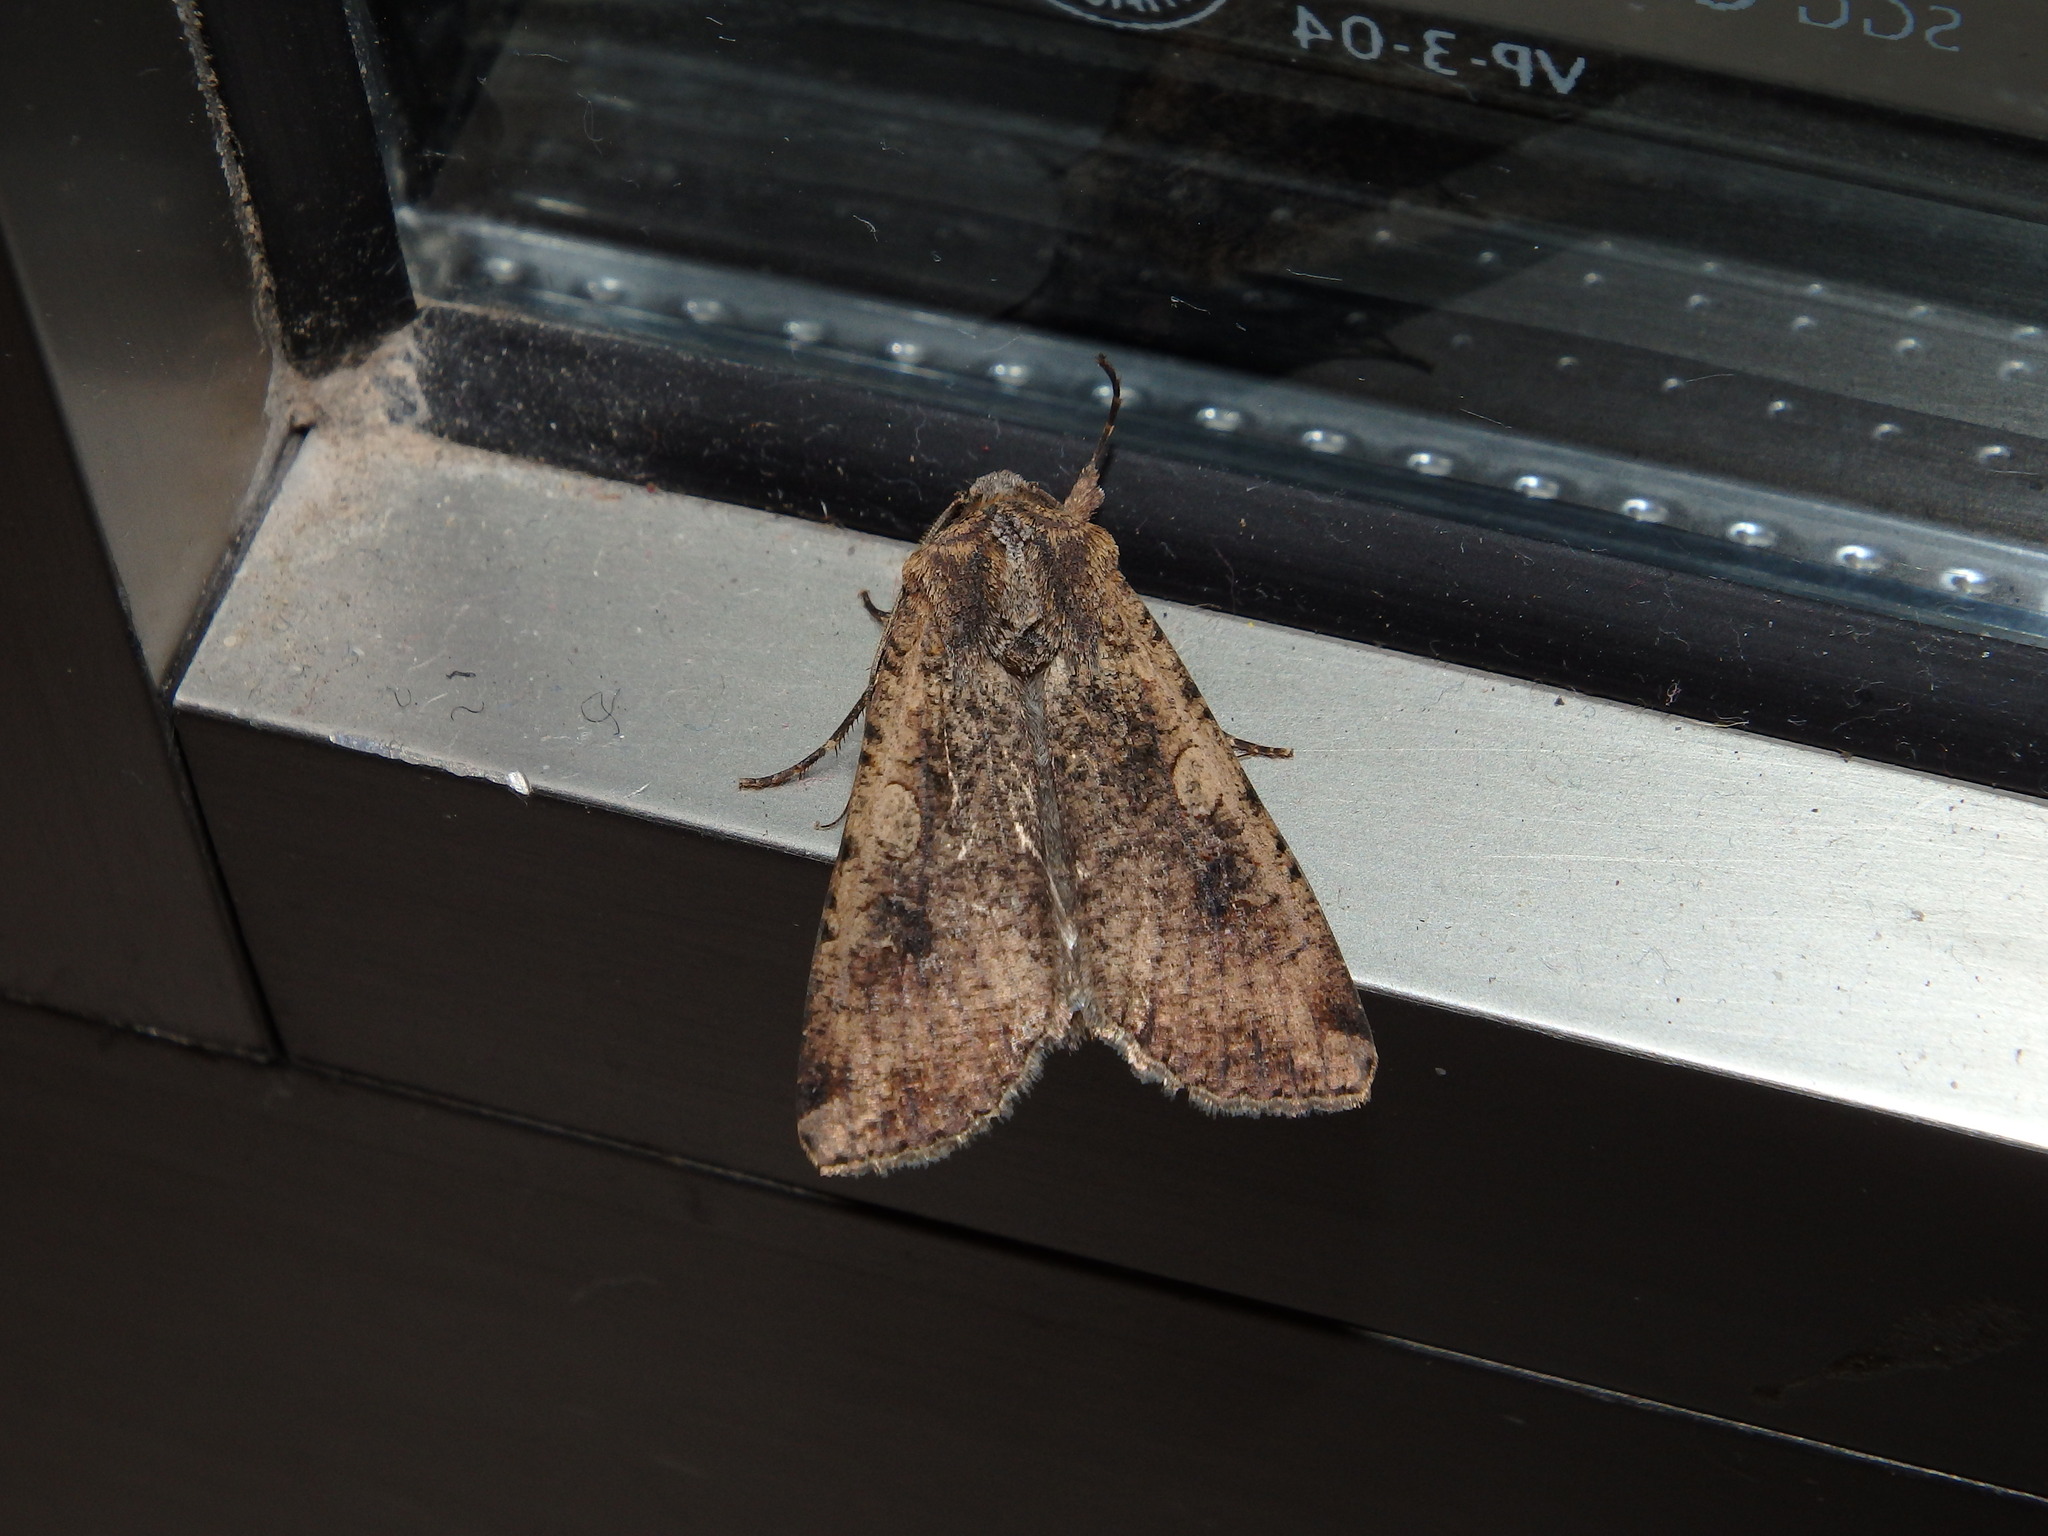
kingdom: Animalia
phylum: Arthropoda
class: Insecta
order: Lepidoptera
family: Noctuidae
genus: Peridroma
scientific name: Peridroma saucia
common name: Pearly underwing
